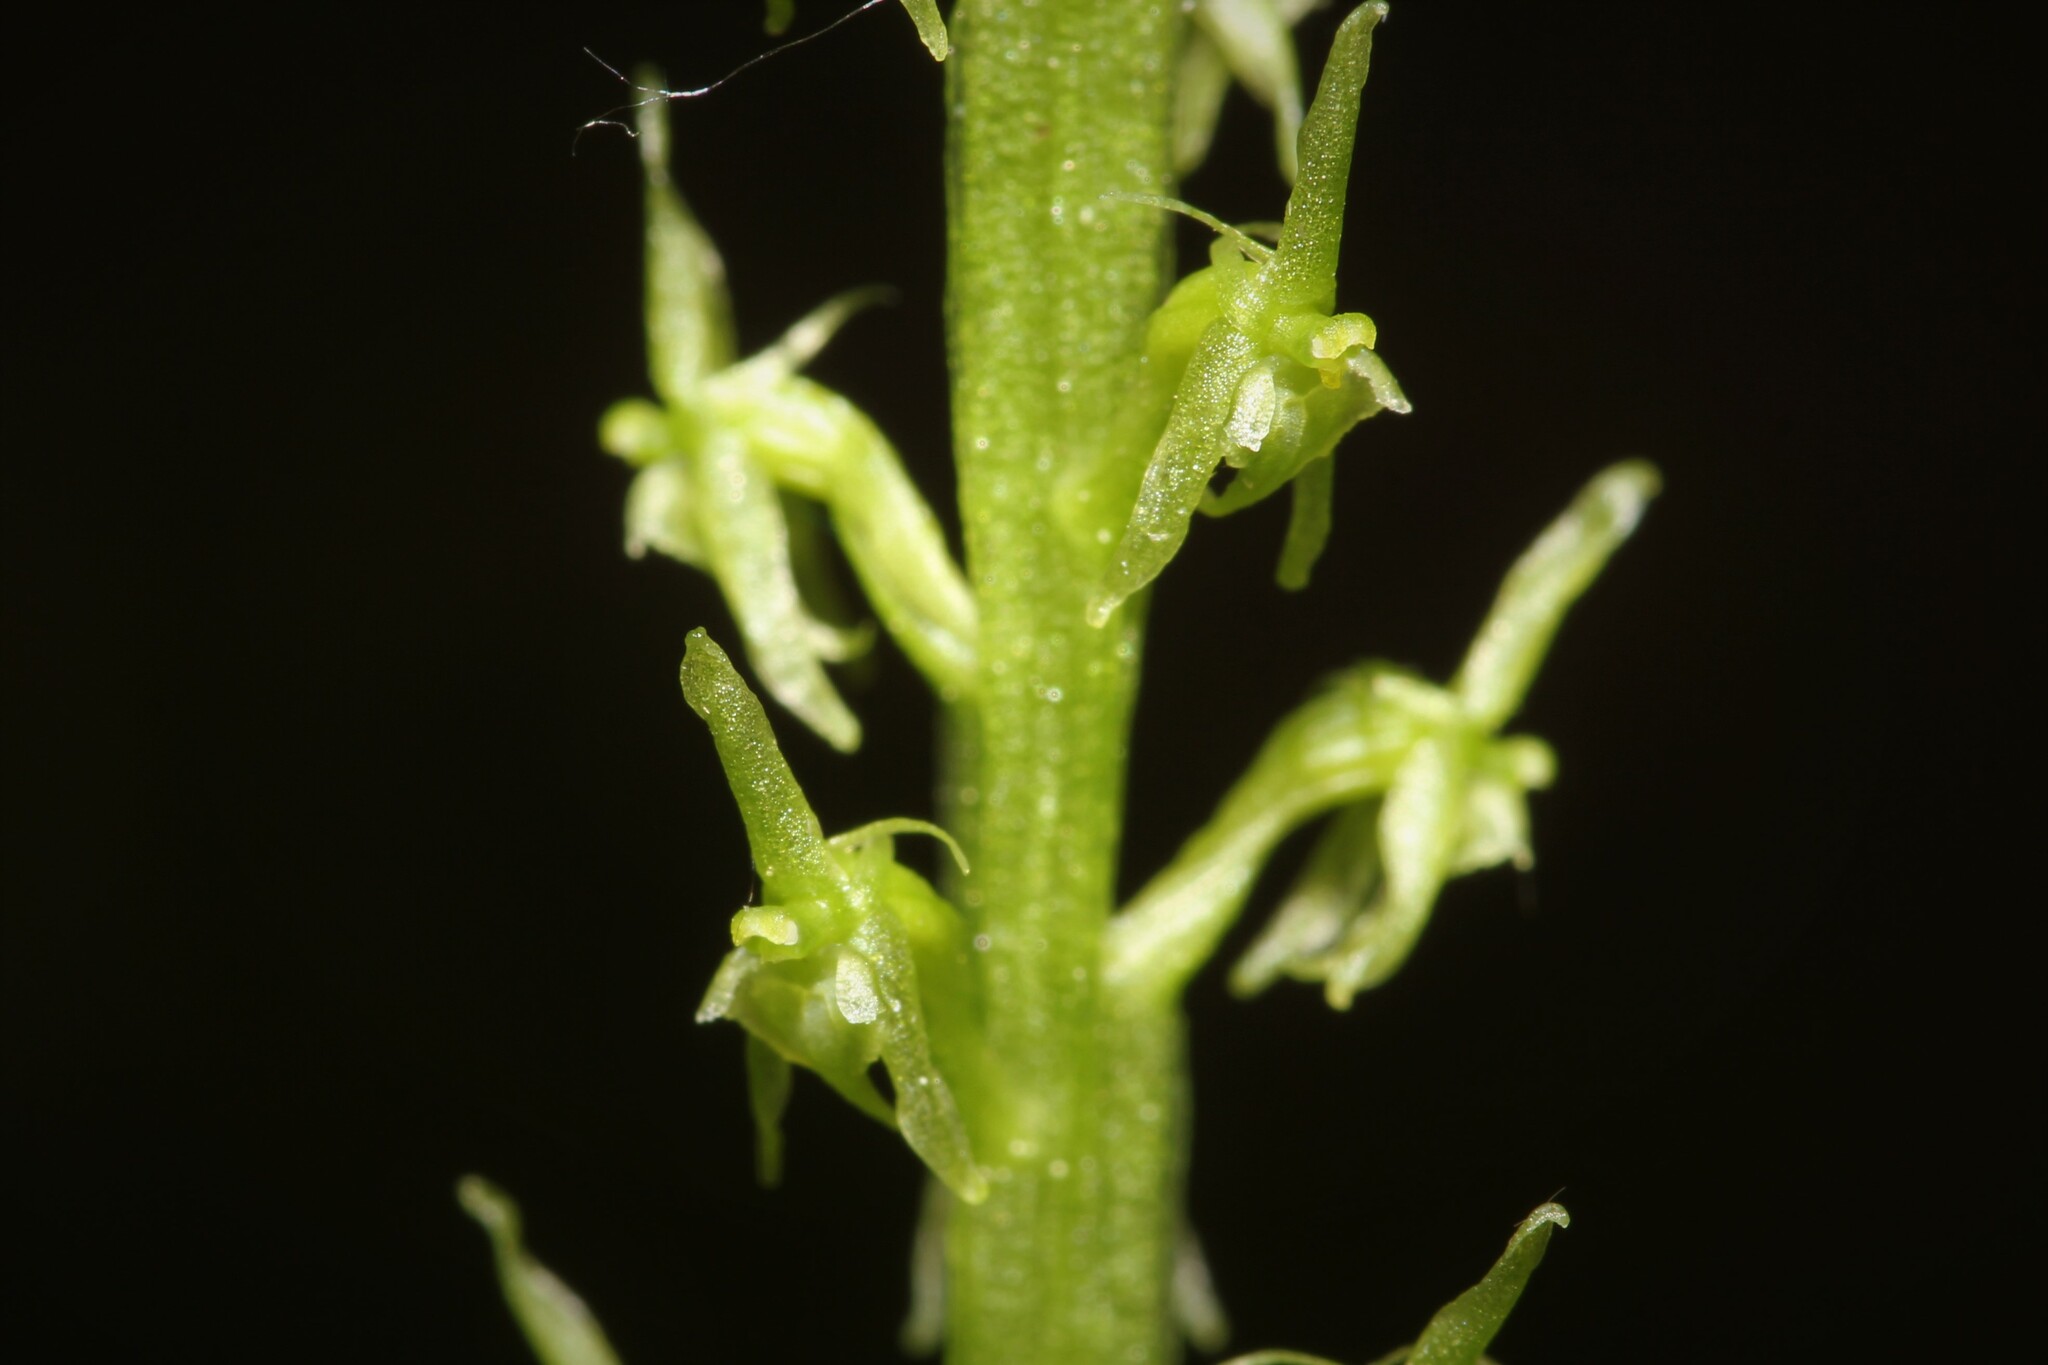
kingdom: Plantae
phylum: Tracheophyta
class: Liliopsida
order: Asparagales
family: Orchidaceae
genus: Malaxis
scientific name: Malaxis monophyllos
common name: White adder's-mouth
